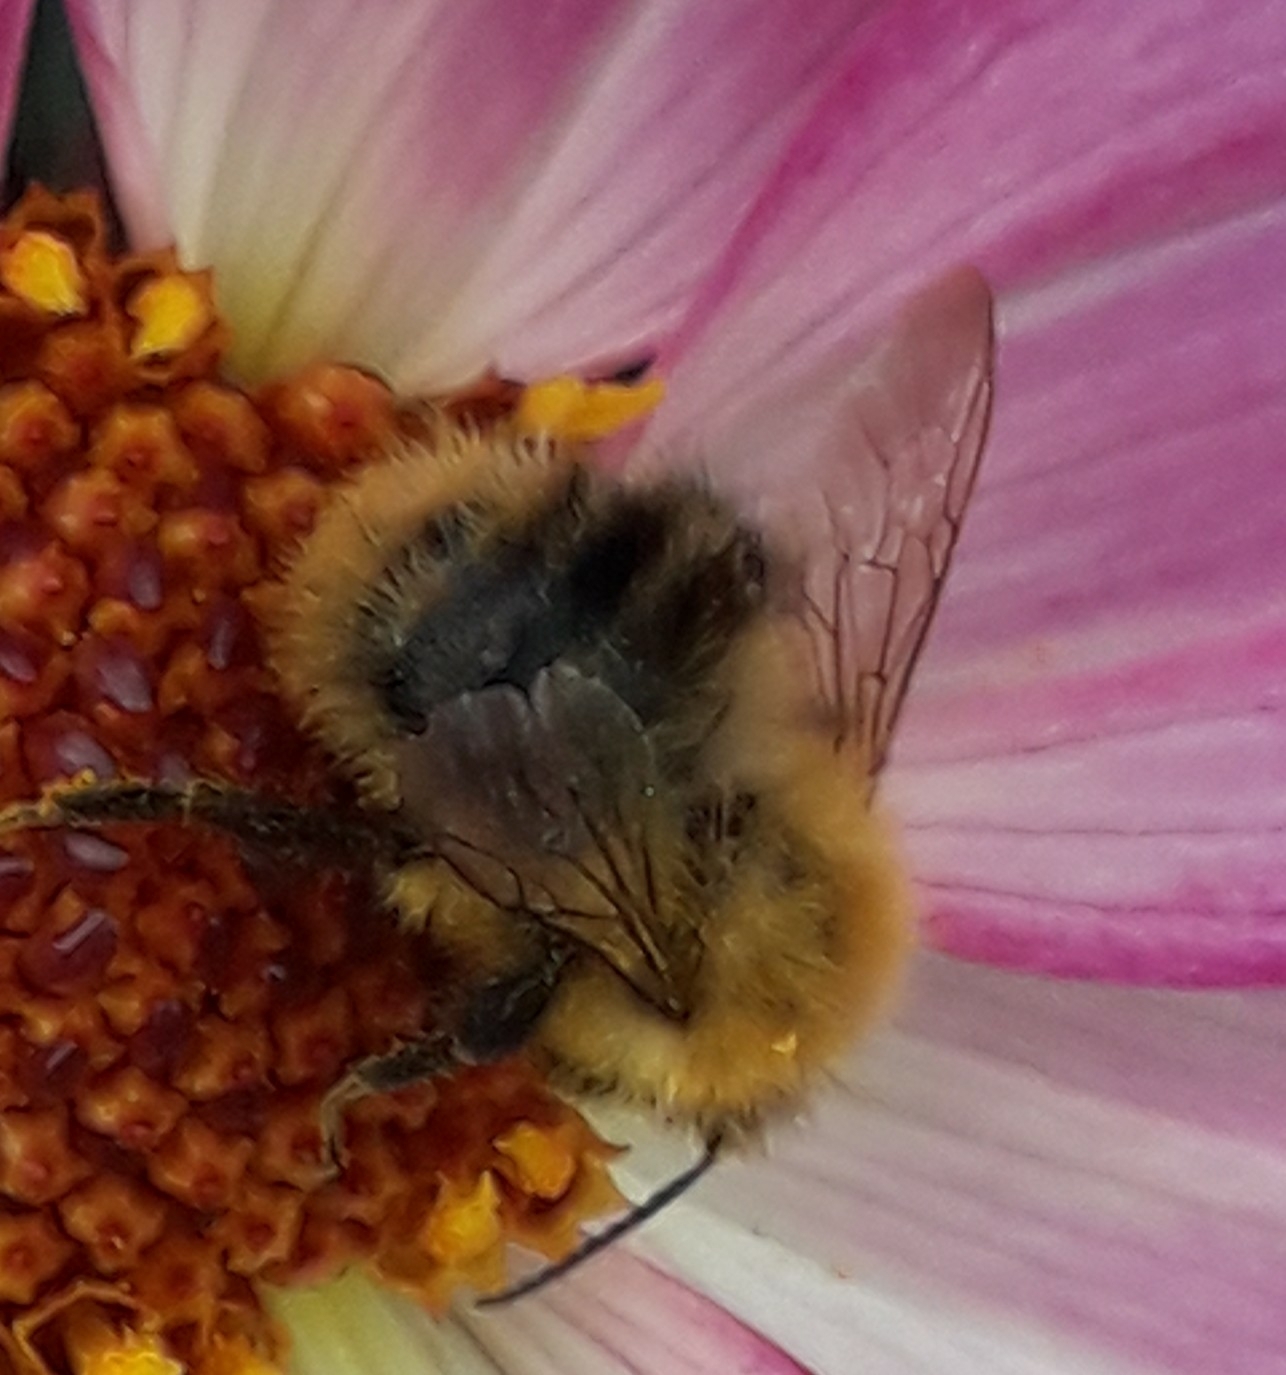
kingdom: Animalia
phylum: Arthropoda
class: Insecta
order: Hymenoptera
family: Apidae
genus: Bombus
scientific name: Bombus pascuorum
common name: Common carder bee
